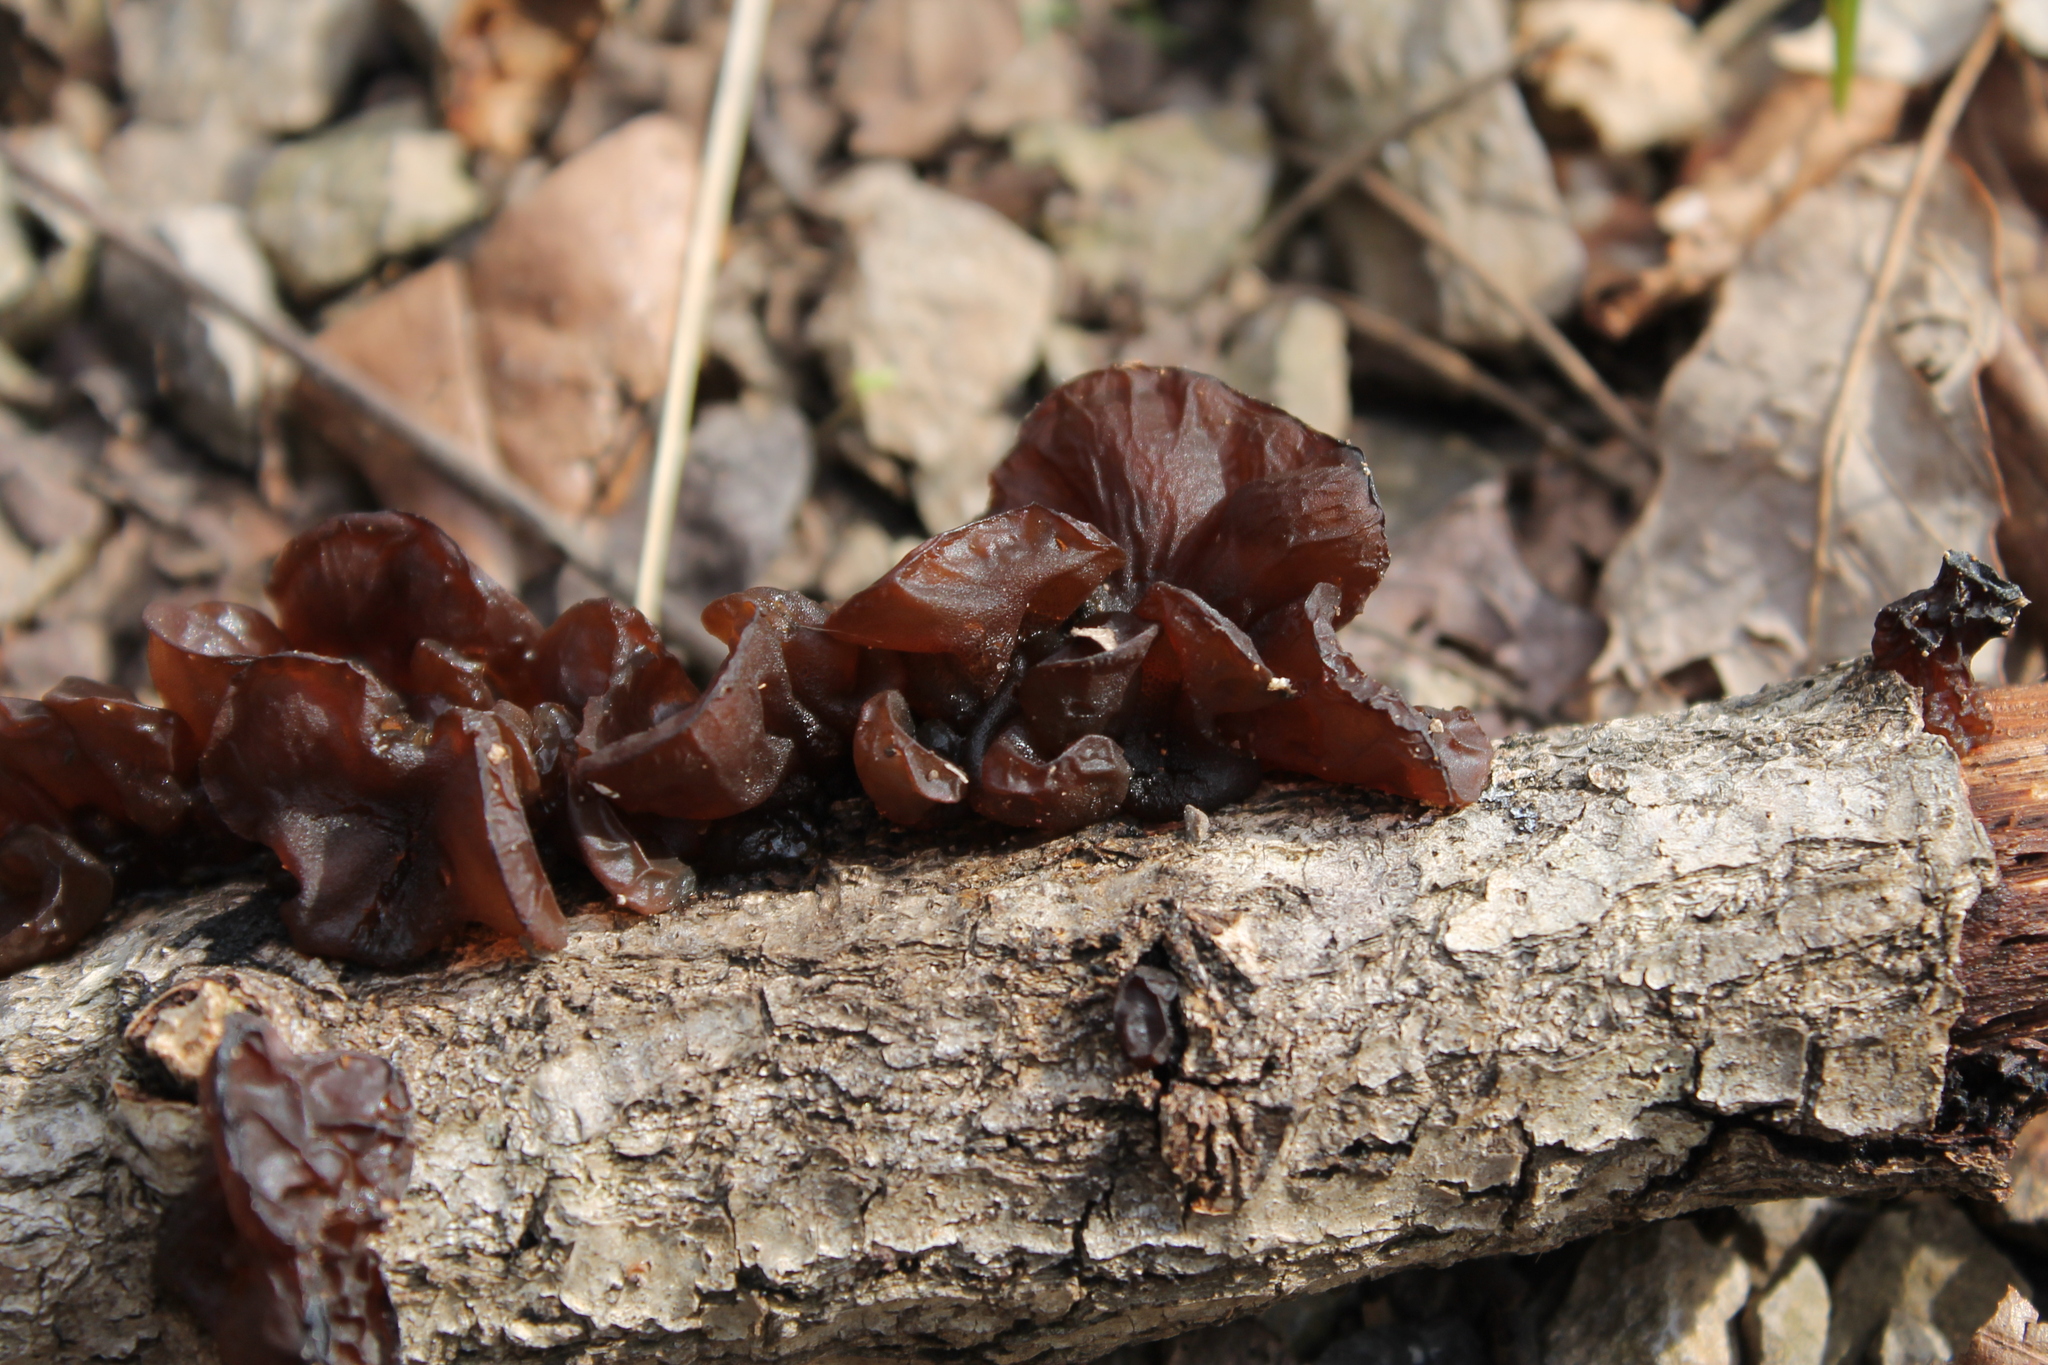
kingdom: Fungi
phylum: Basidiomycota
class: Agaricomycetes
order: Auriculariales
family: Auriculariaceae
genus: Exidia
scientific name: Exidia
